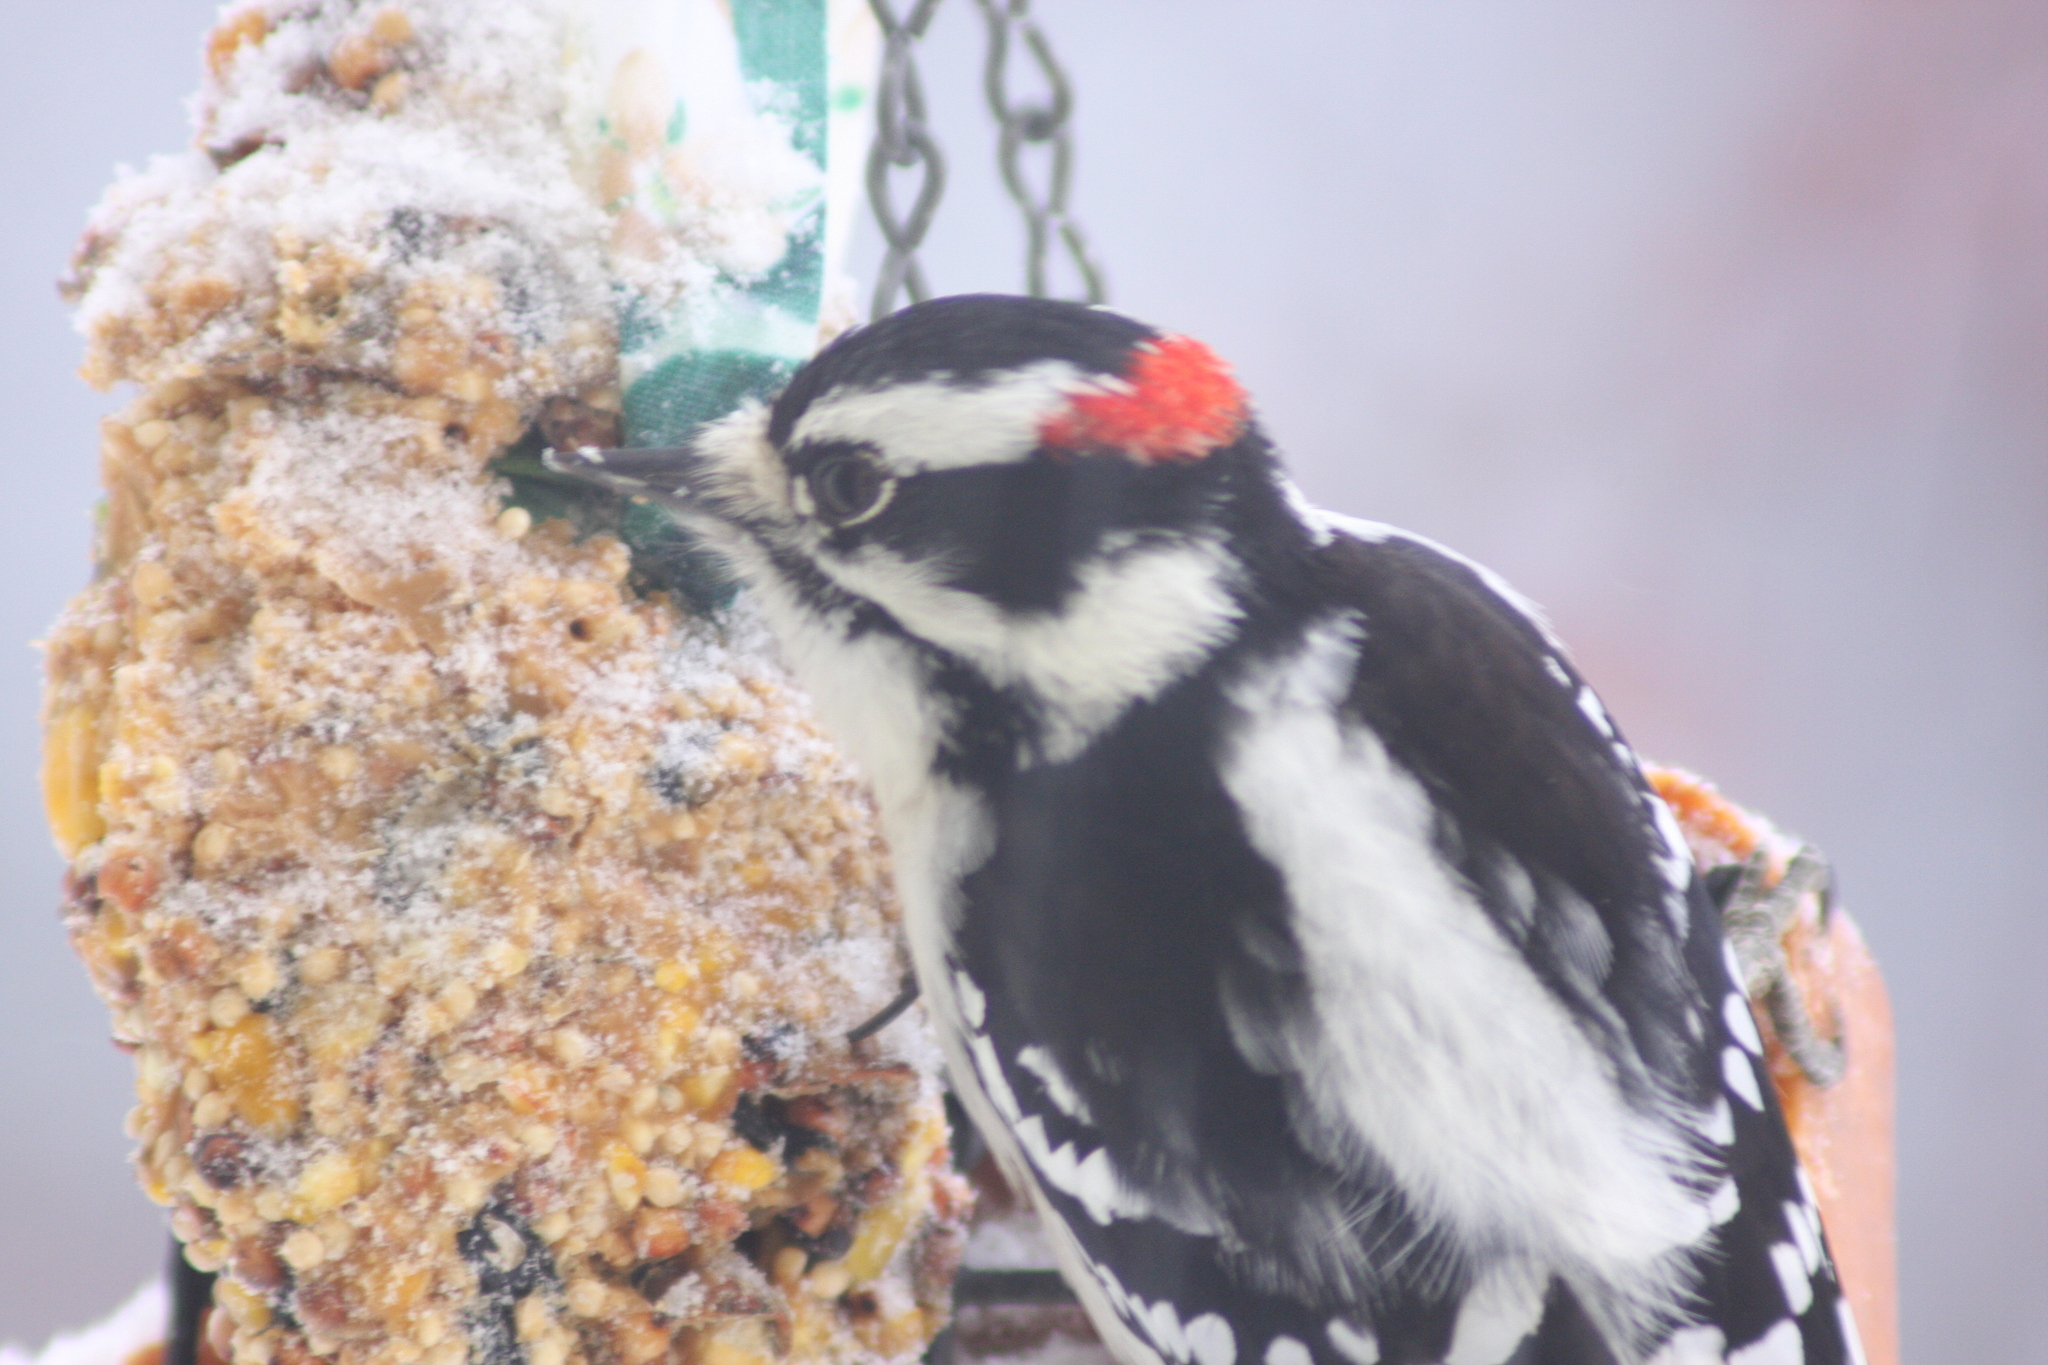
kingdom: Animalia
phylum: Chordata
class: Aves
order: Piciformes
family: Picidae
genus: Dryobates
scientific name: Dryobates pubescens
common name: Downy woodpecker
